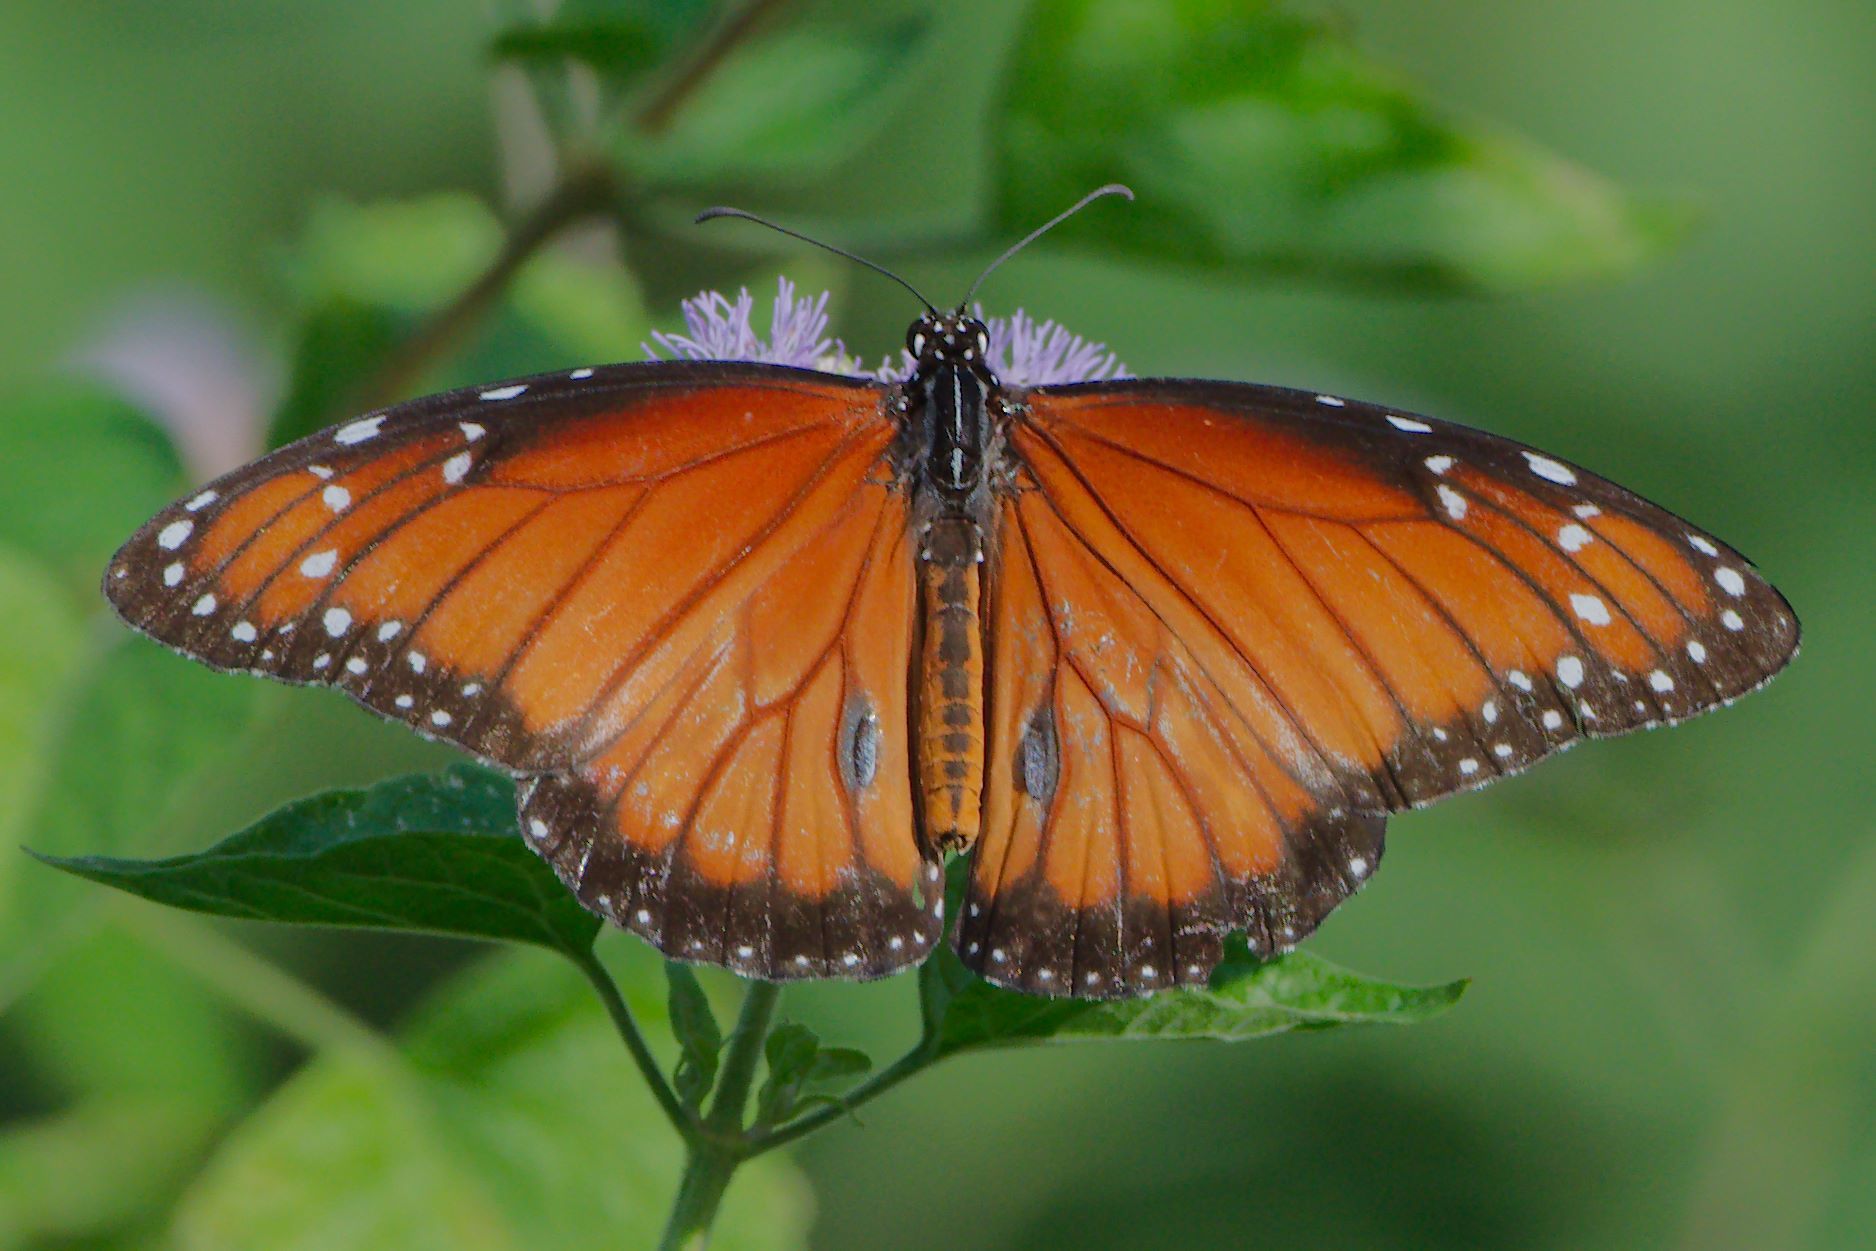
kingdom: Animalia
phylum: Arthropoda
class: Insecta
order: Lepidoptera
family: Nymphalidae
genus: Danaus
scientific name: Danaus eresimus
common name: Soldier
